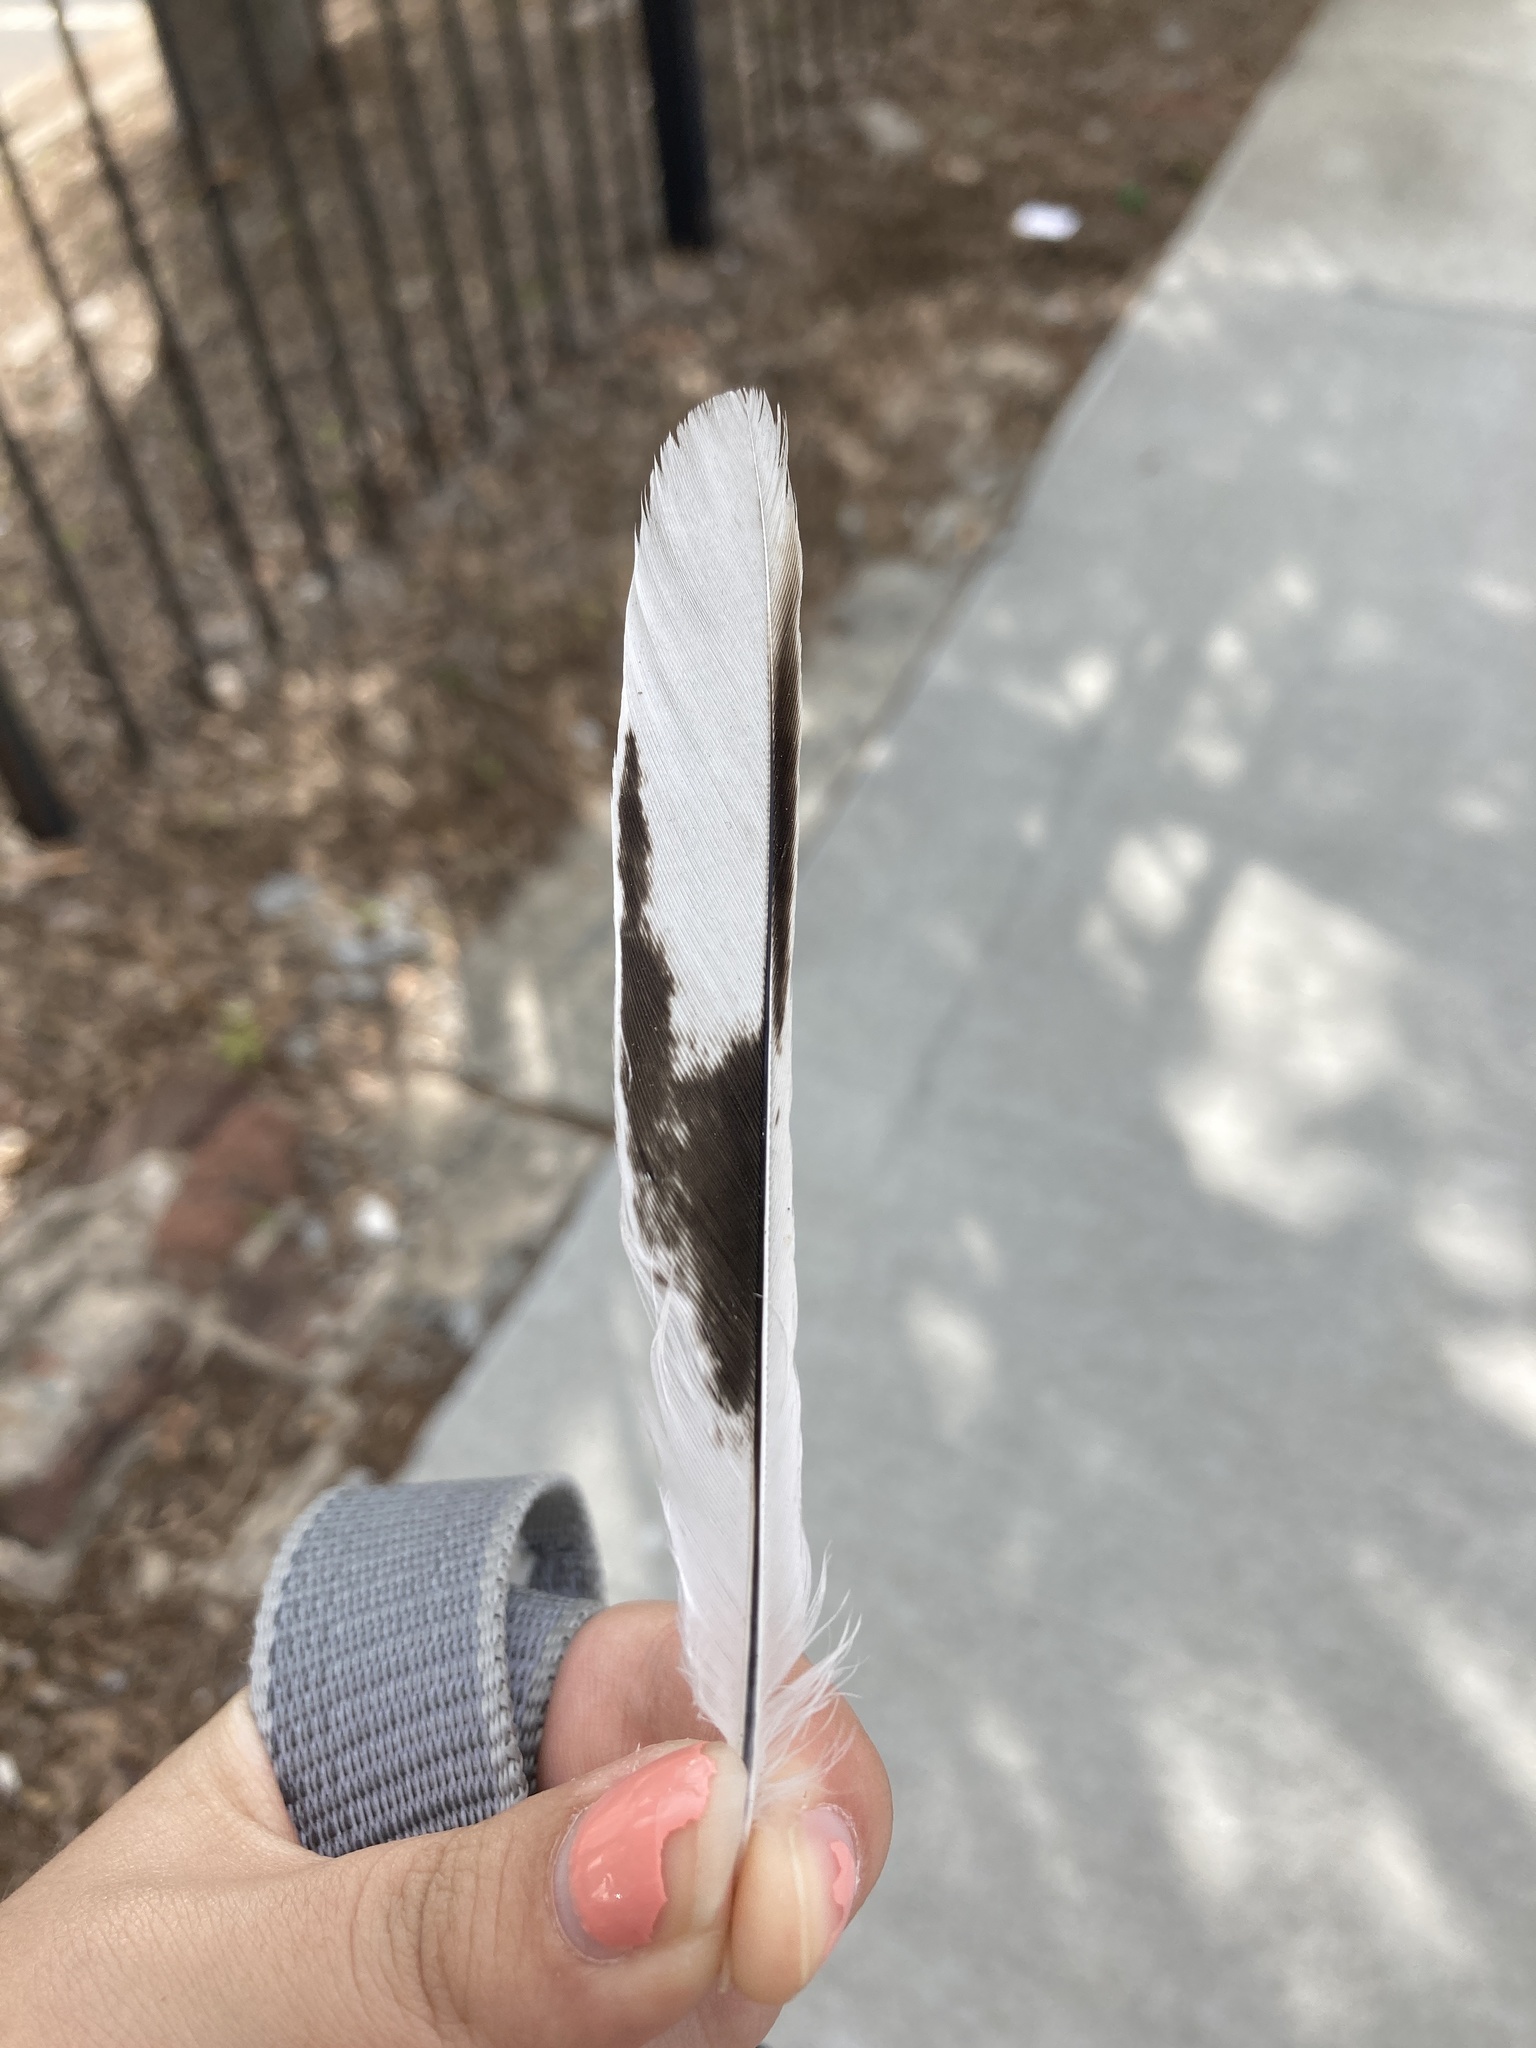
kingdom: Animalia
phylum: Chordata
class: Aves
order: Passeriformes
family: Mimidae
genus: Mimus
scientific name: Mimus polyglottos
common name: Northern mockingbird
